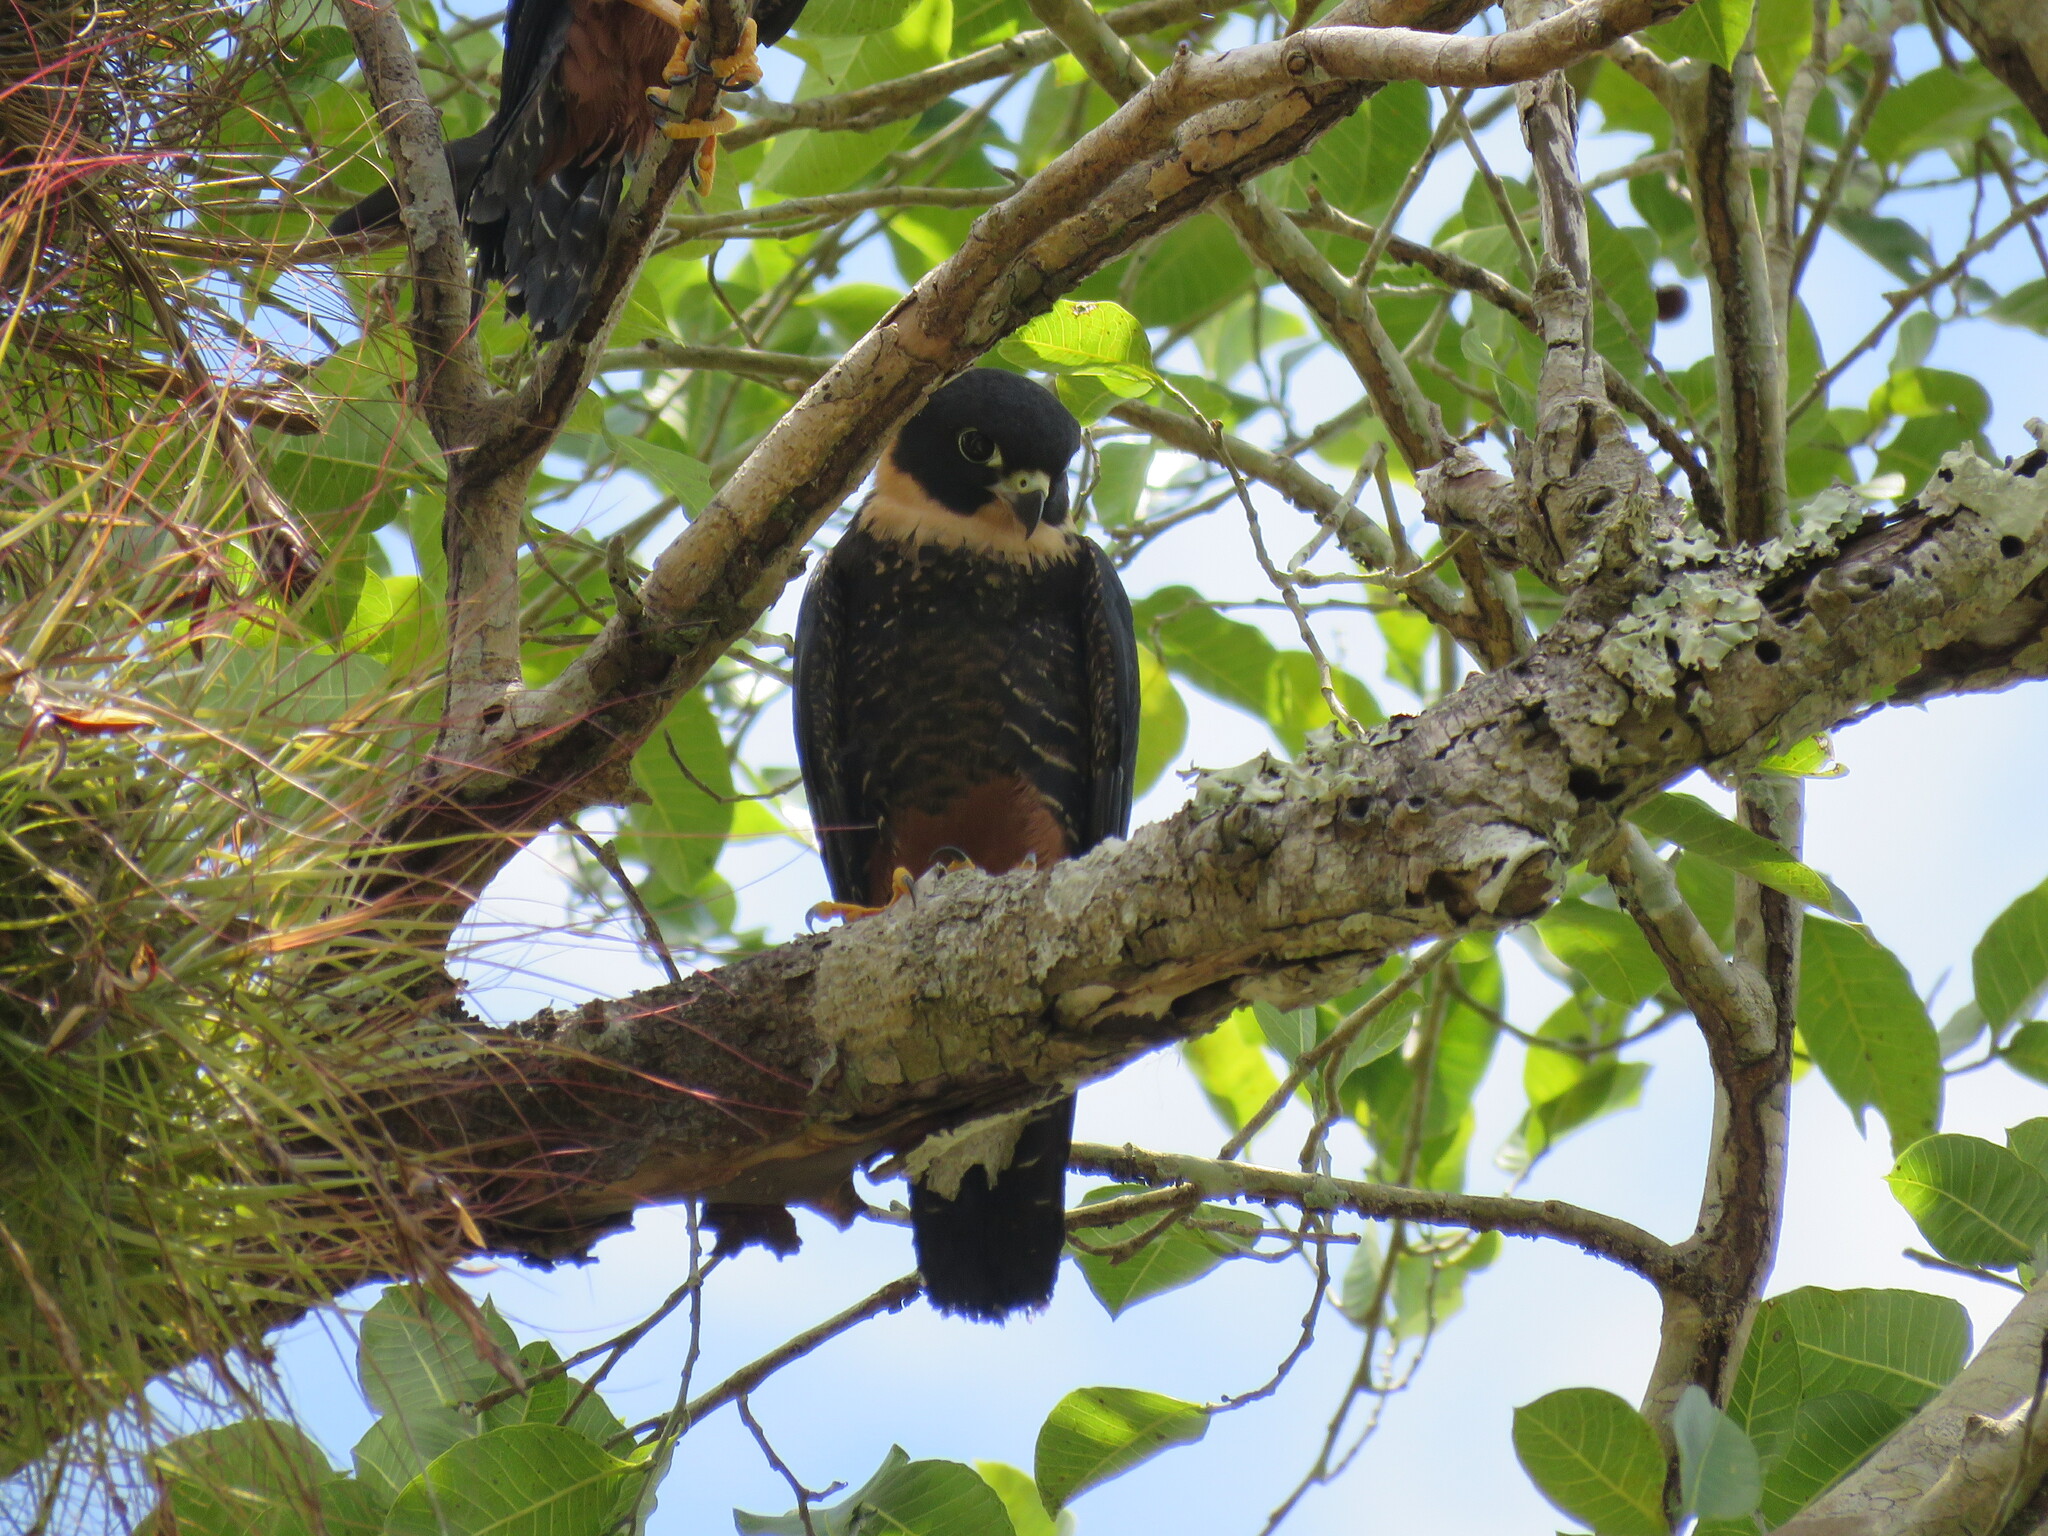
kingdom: Animalia
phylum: Chordata
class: Aves
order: Falconiformes
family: Falconidae
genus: Falco
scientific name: Falco rufigularis
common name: Bat falcon
